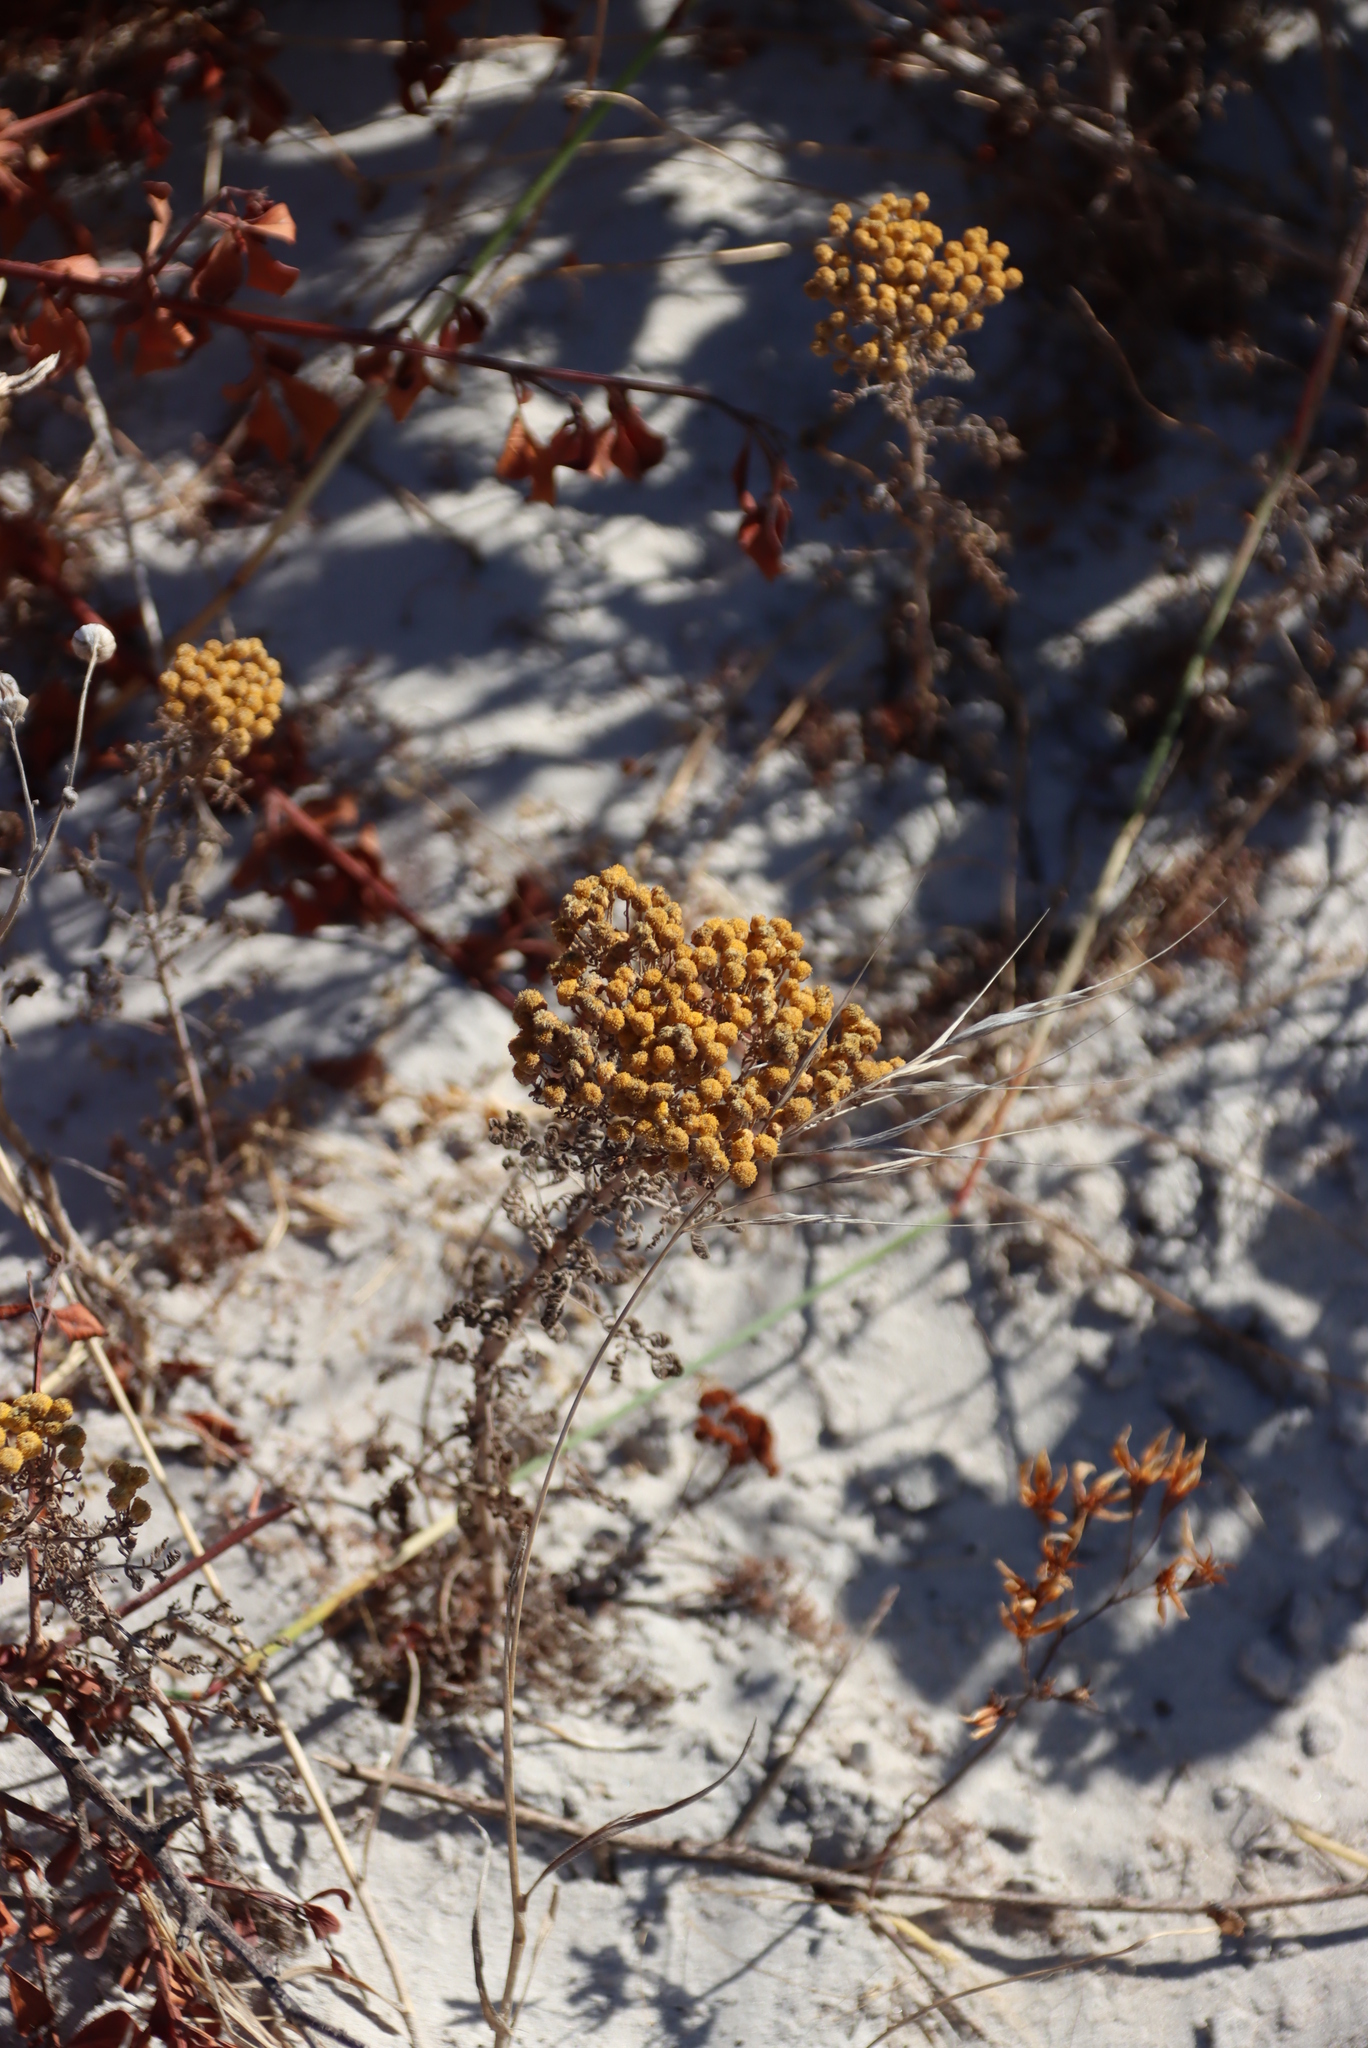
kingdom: Plantae
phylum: Tracheophyta
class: Magnoliopsida
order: Asterales
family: Asteraceae
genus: Oncosiphon
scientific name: Oncosiphon suffruticosus
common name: Shrubby mayweed
